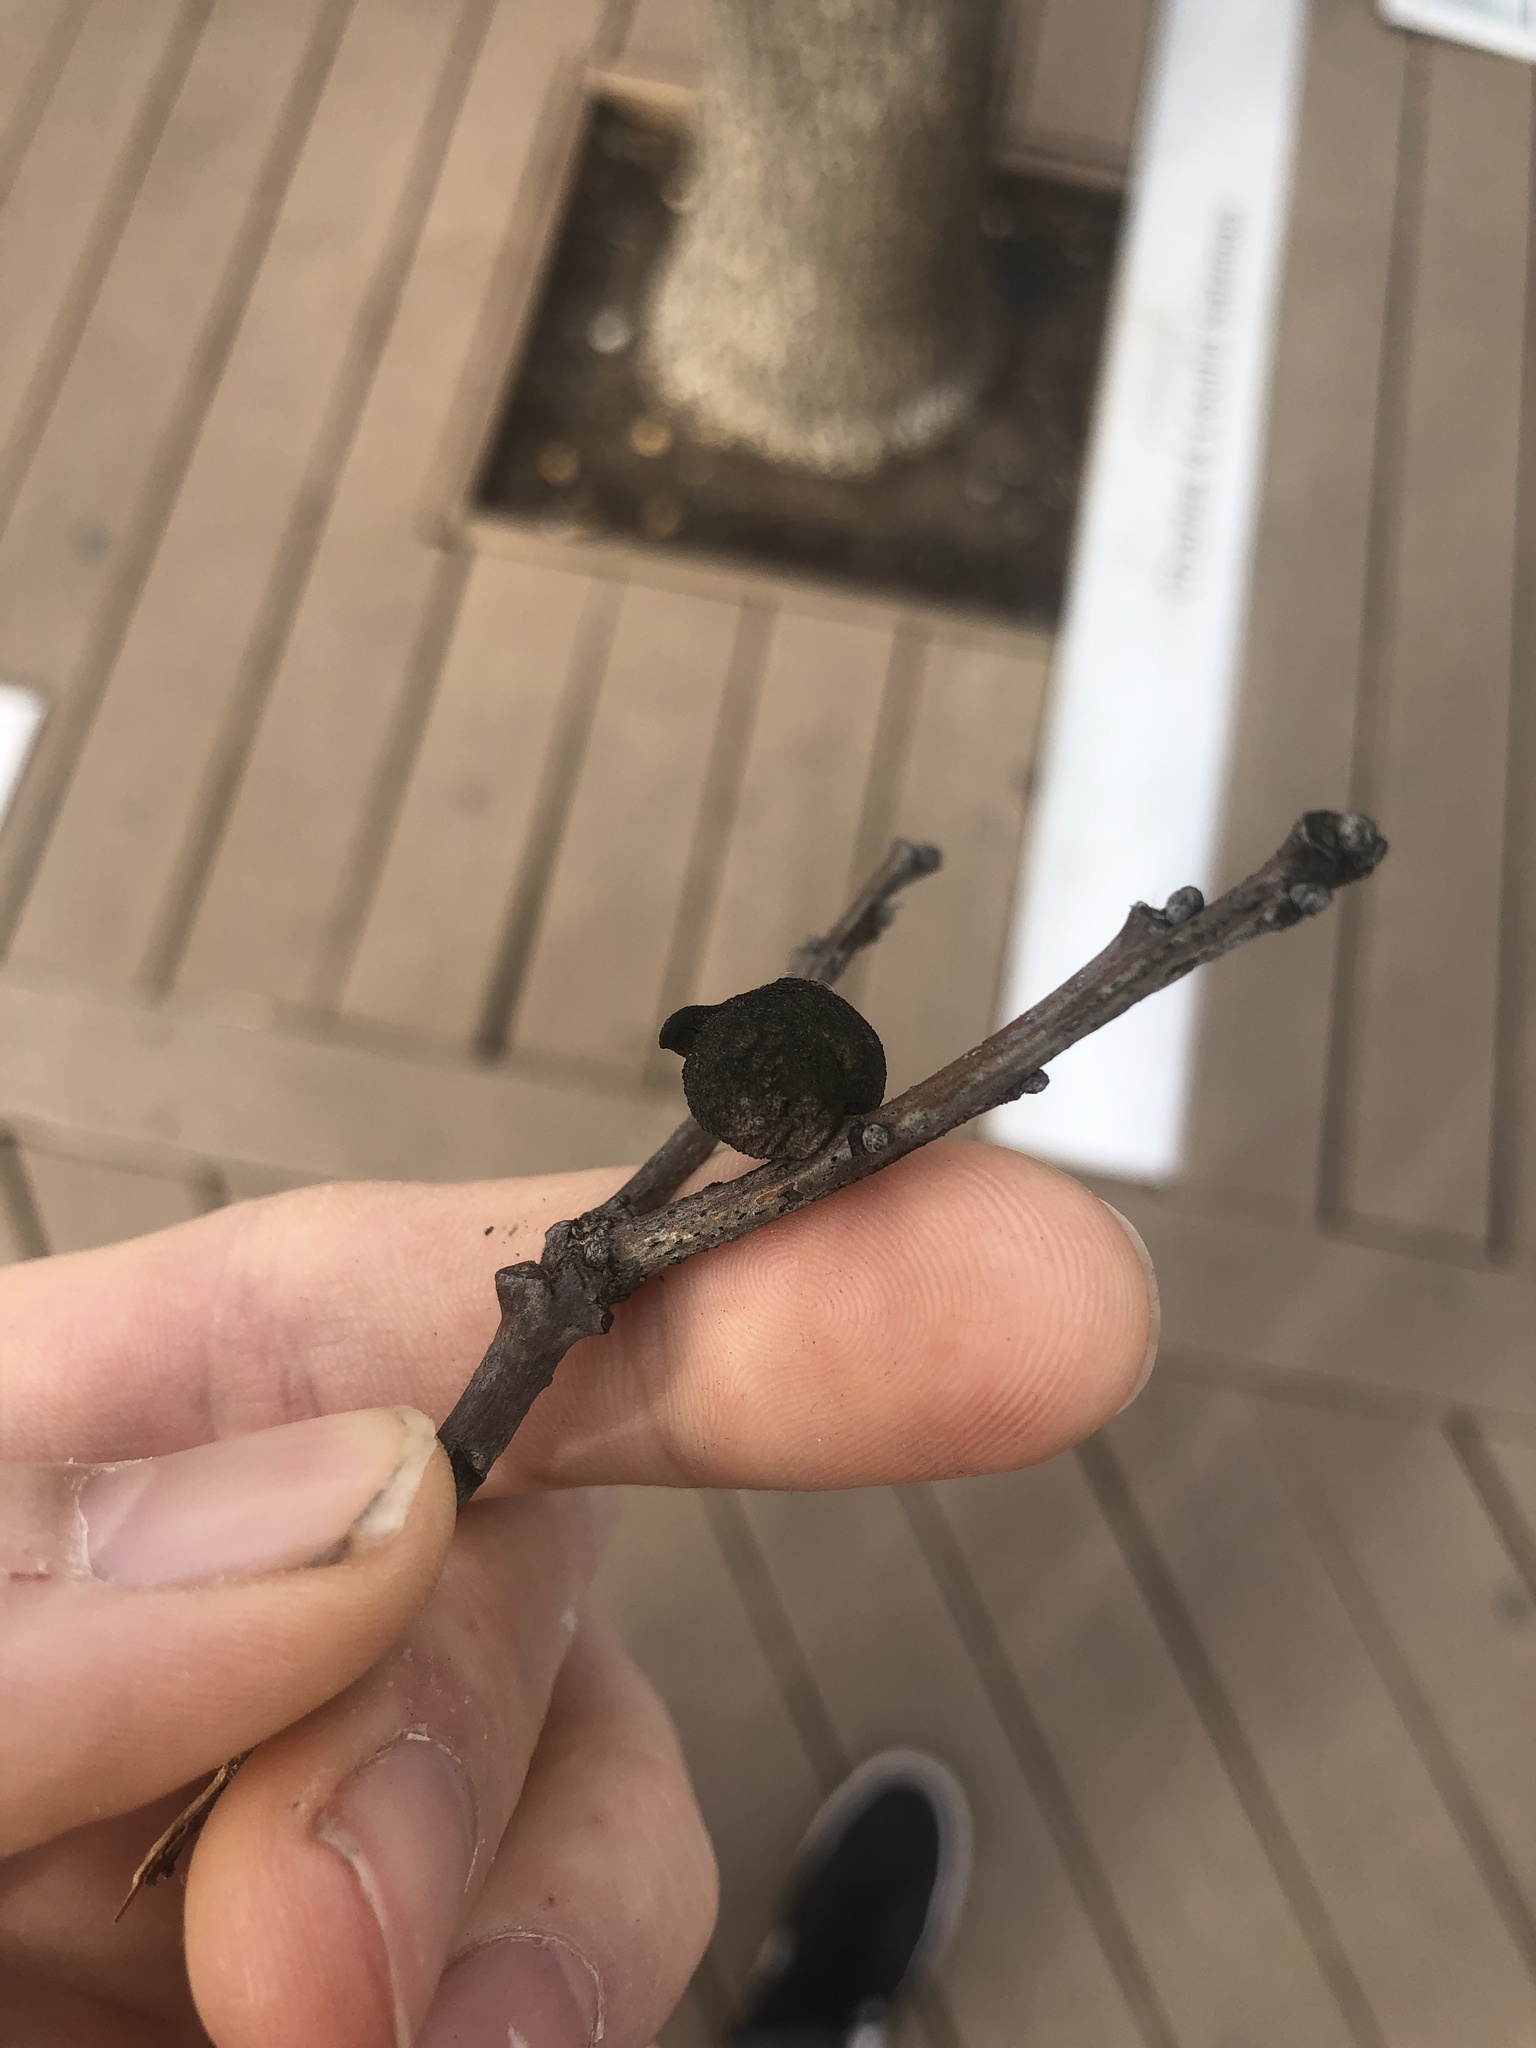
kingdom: Animalia
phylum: Arthropoda
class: Insecta
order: Hymenoptera
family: Cynipidae
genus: Disholcaspis
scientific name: Disholcaspis
